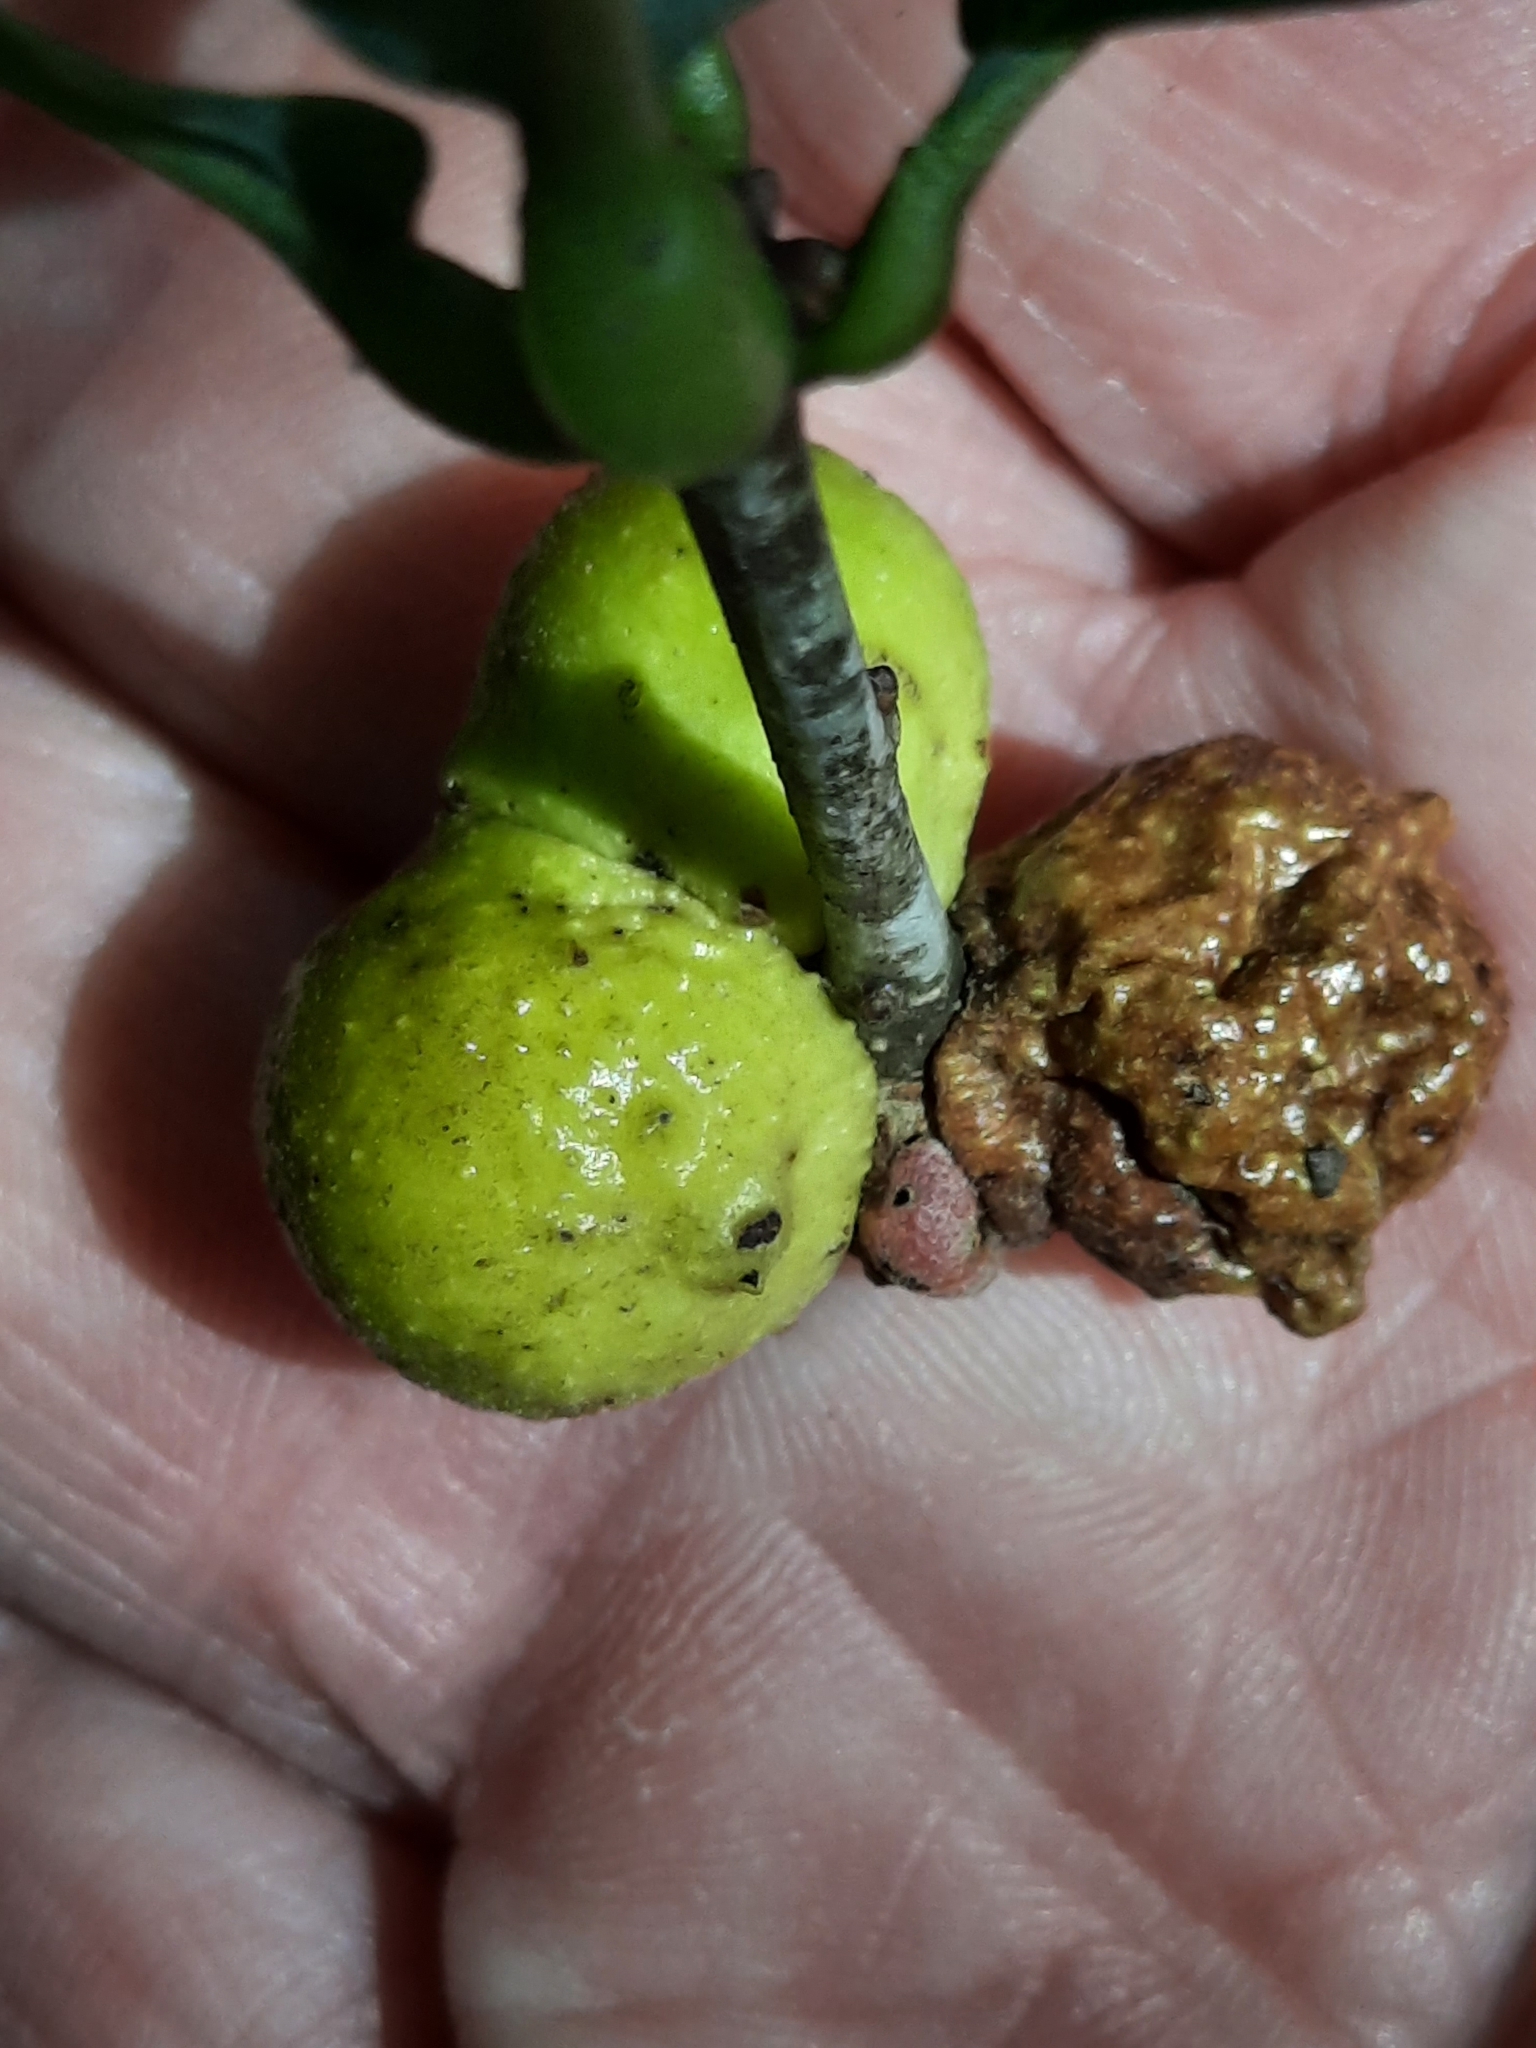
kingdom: Animalia
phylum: Arthropoda
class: Insecta
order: Hymenoptera
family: Cynipidae
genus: Disholcaspis
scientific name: Disholcaspis quercusglobulus
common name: Round bullet gall wasp
